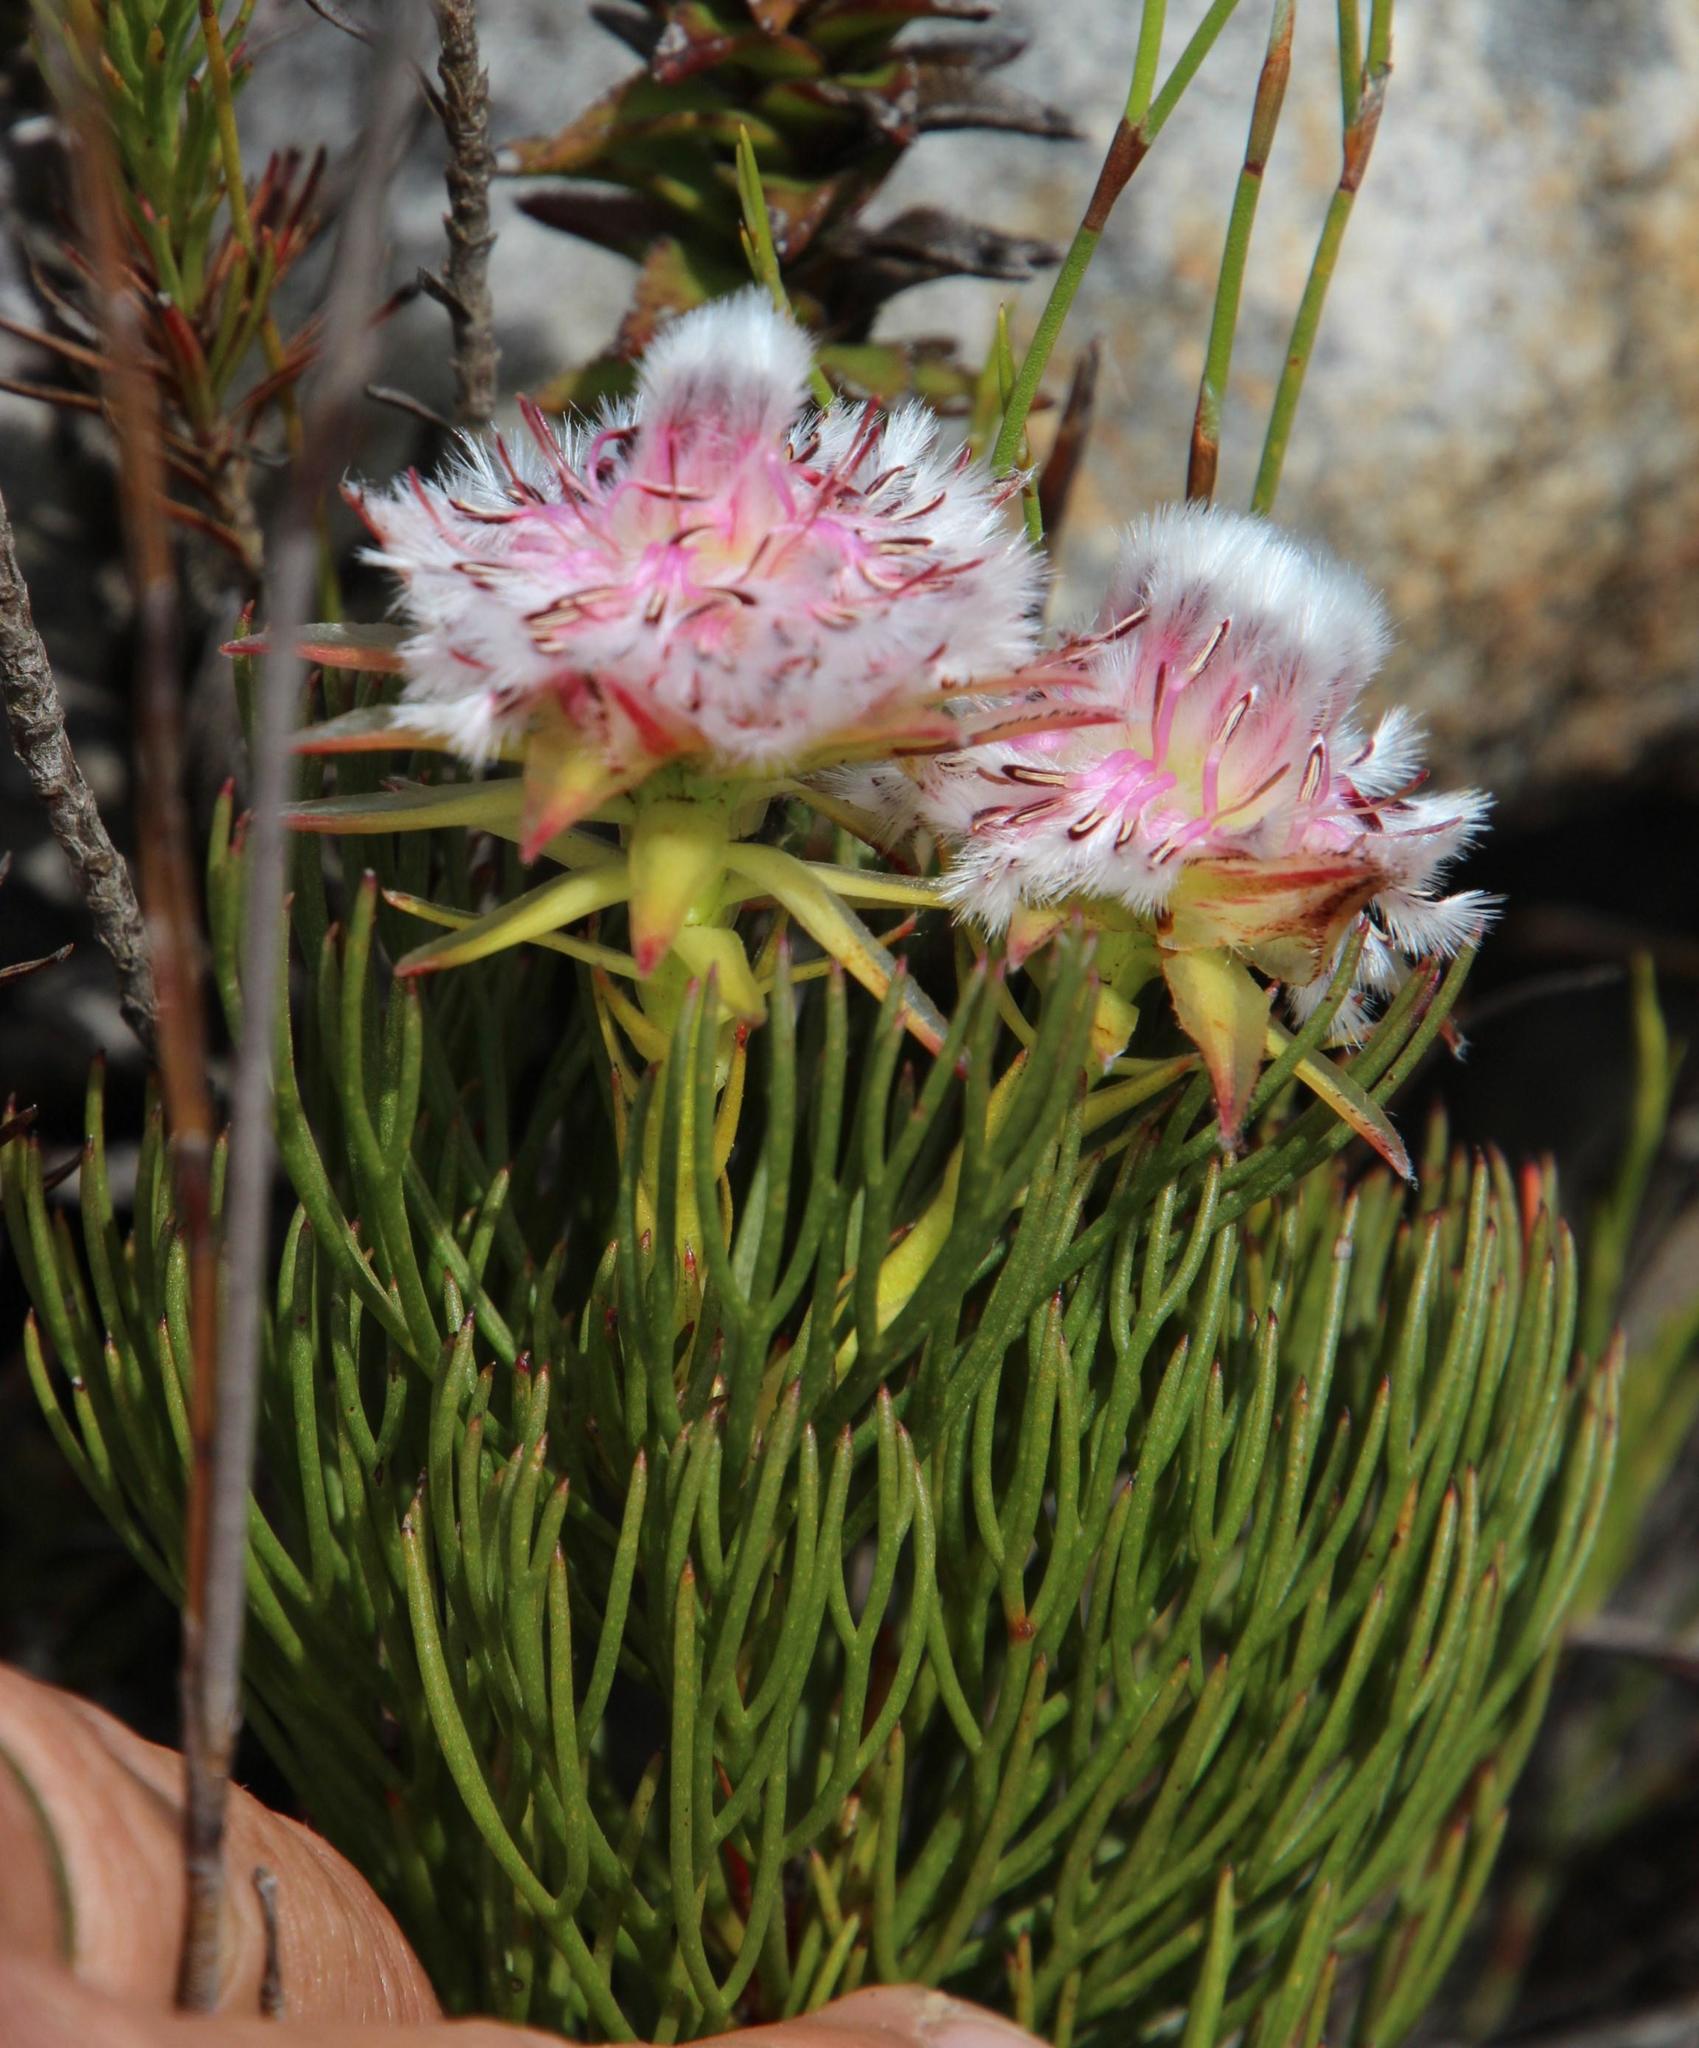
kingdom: Plantae
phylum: Tracheophyta
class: Magnoliopsida
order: Proteales
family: Proteaceae
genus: Serruria
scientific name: Serruria phylicoides
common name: Bearded spiderhead
